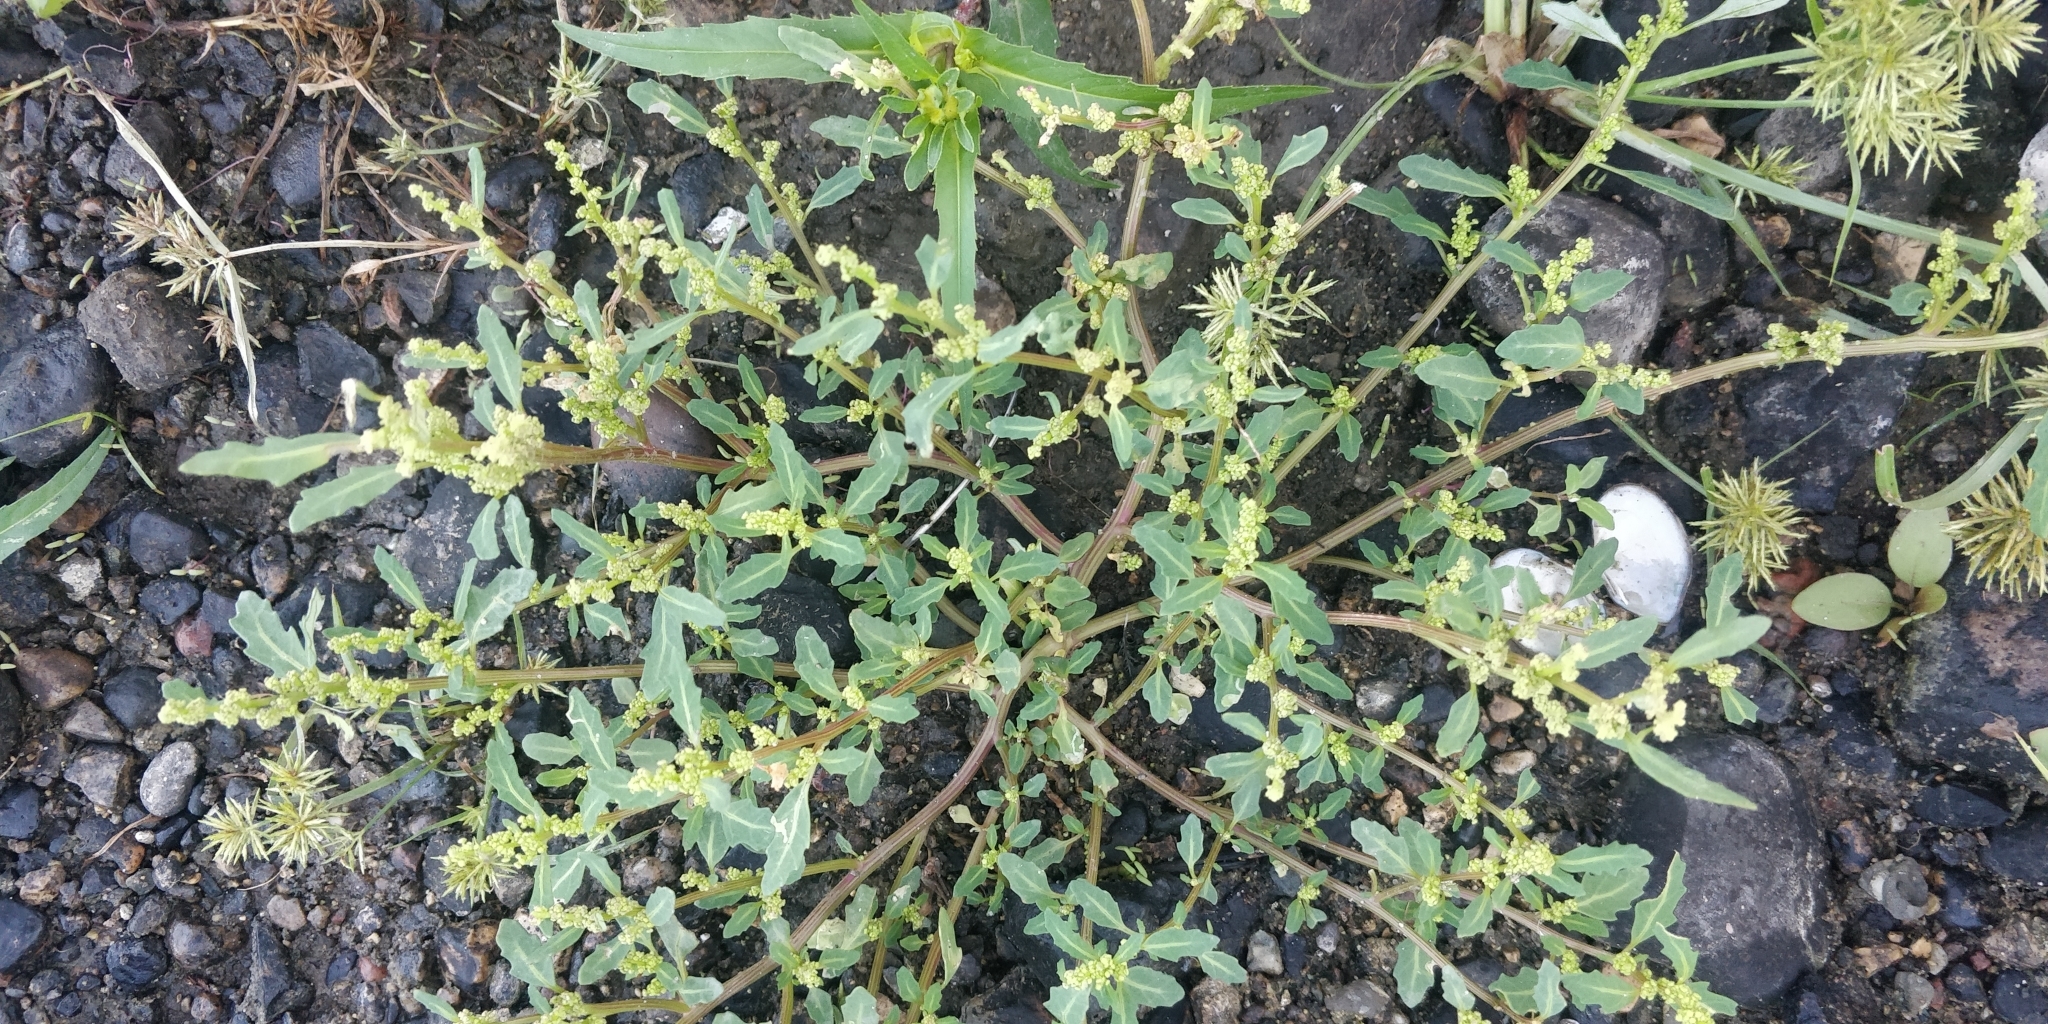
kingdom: Plantae
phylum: Tracheophyta
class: Magnoliopsida
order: Caryophyllales
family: Amaranthaceae
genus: Oxybasis
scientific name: Oxybasis glauca
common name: Glaucous goosefoot
